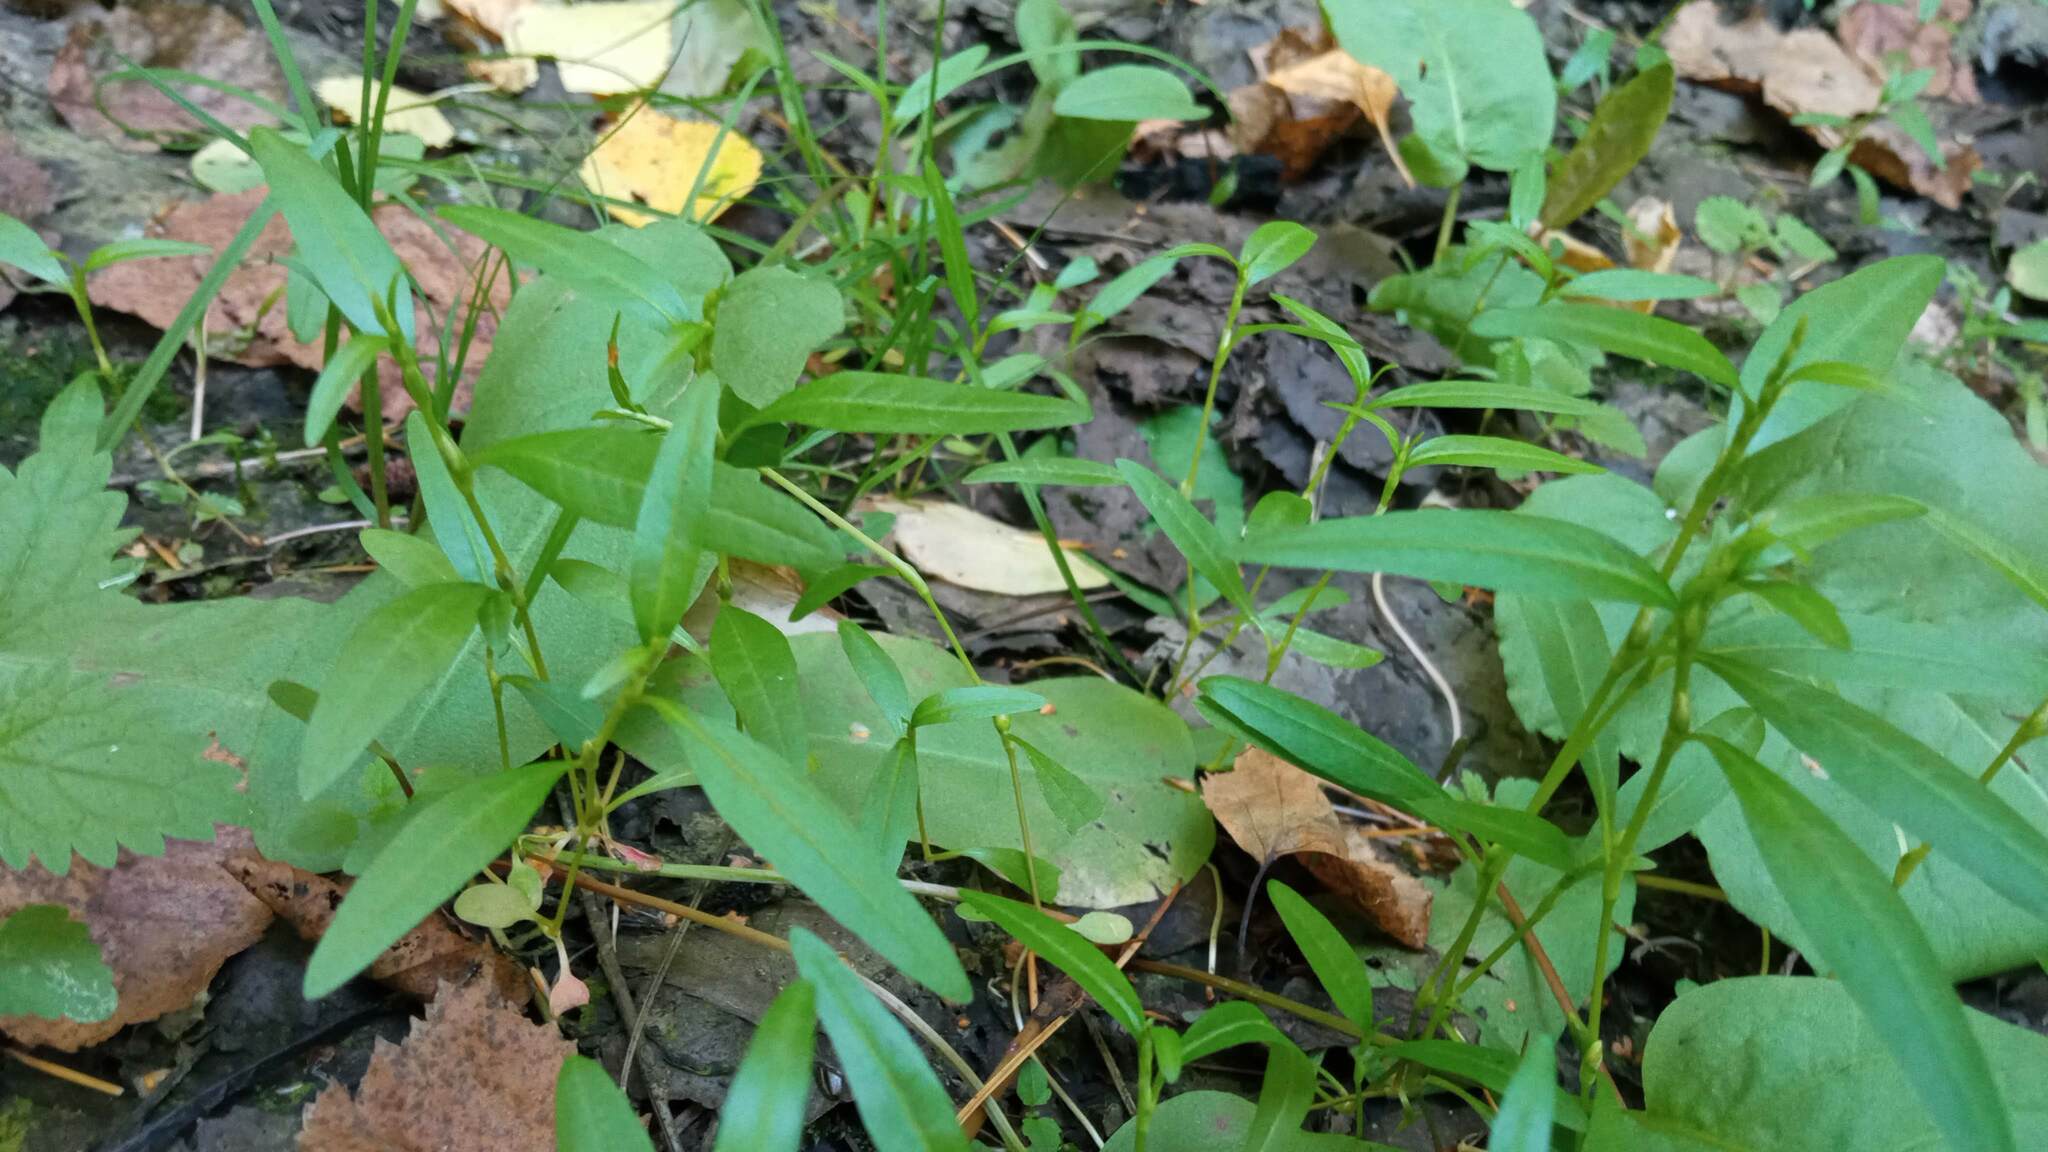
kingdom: Plantae
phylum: Tracheophyta
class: Magnoliopsida
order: Caryophyllales
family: Polygonaceae
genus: Persicaria
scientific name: Persicaria hydropiper
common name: Water-pepper
